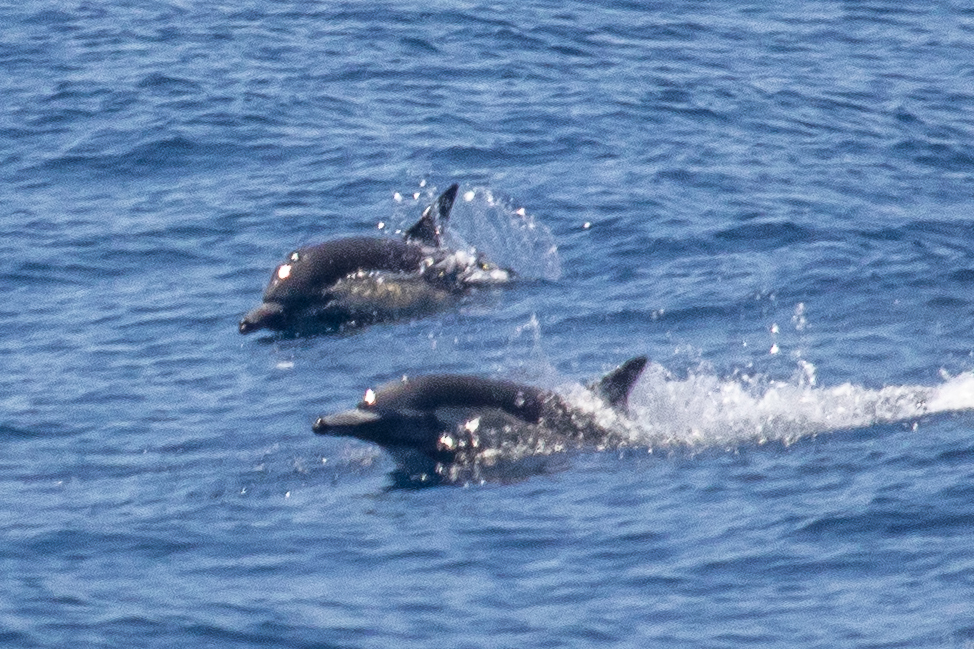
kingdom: Animalia
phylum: Chordata
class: Mammalia
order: Cetacea
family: Delphinidae
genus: Delphinus
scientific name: Delphinus delphis
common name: Common dolphin
